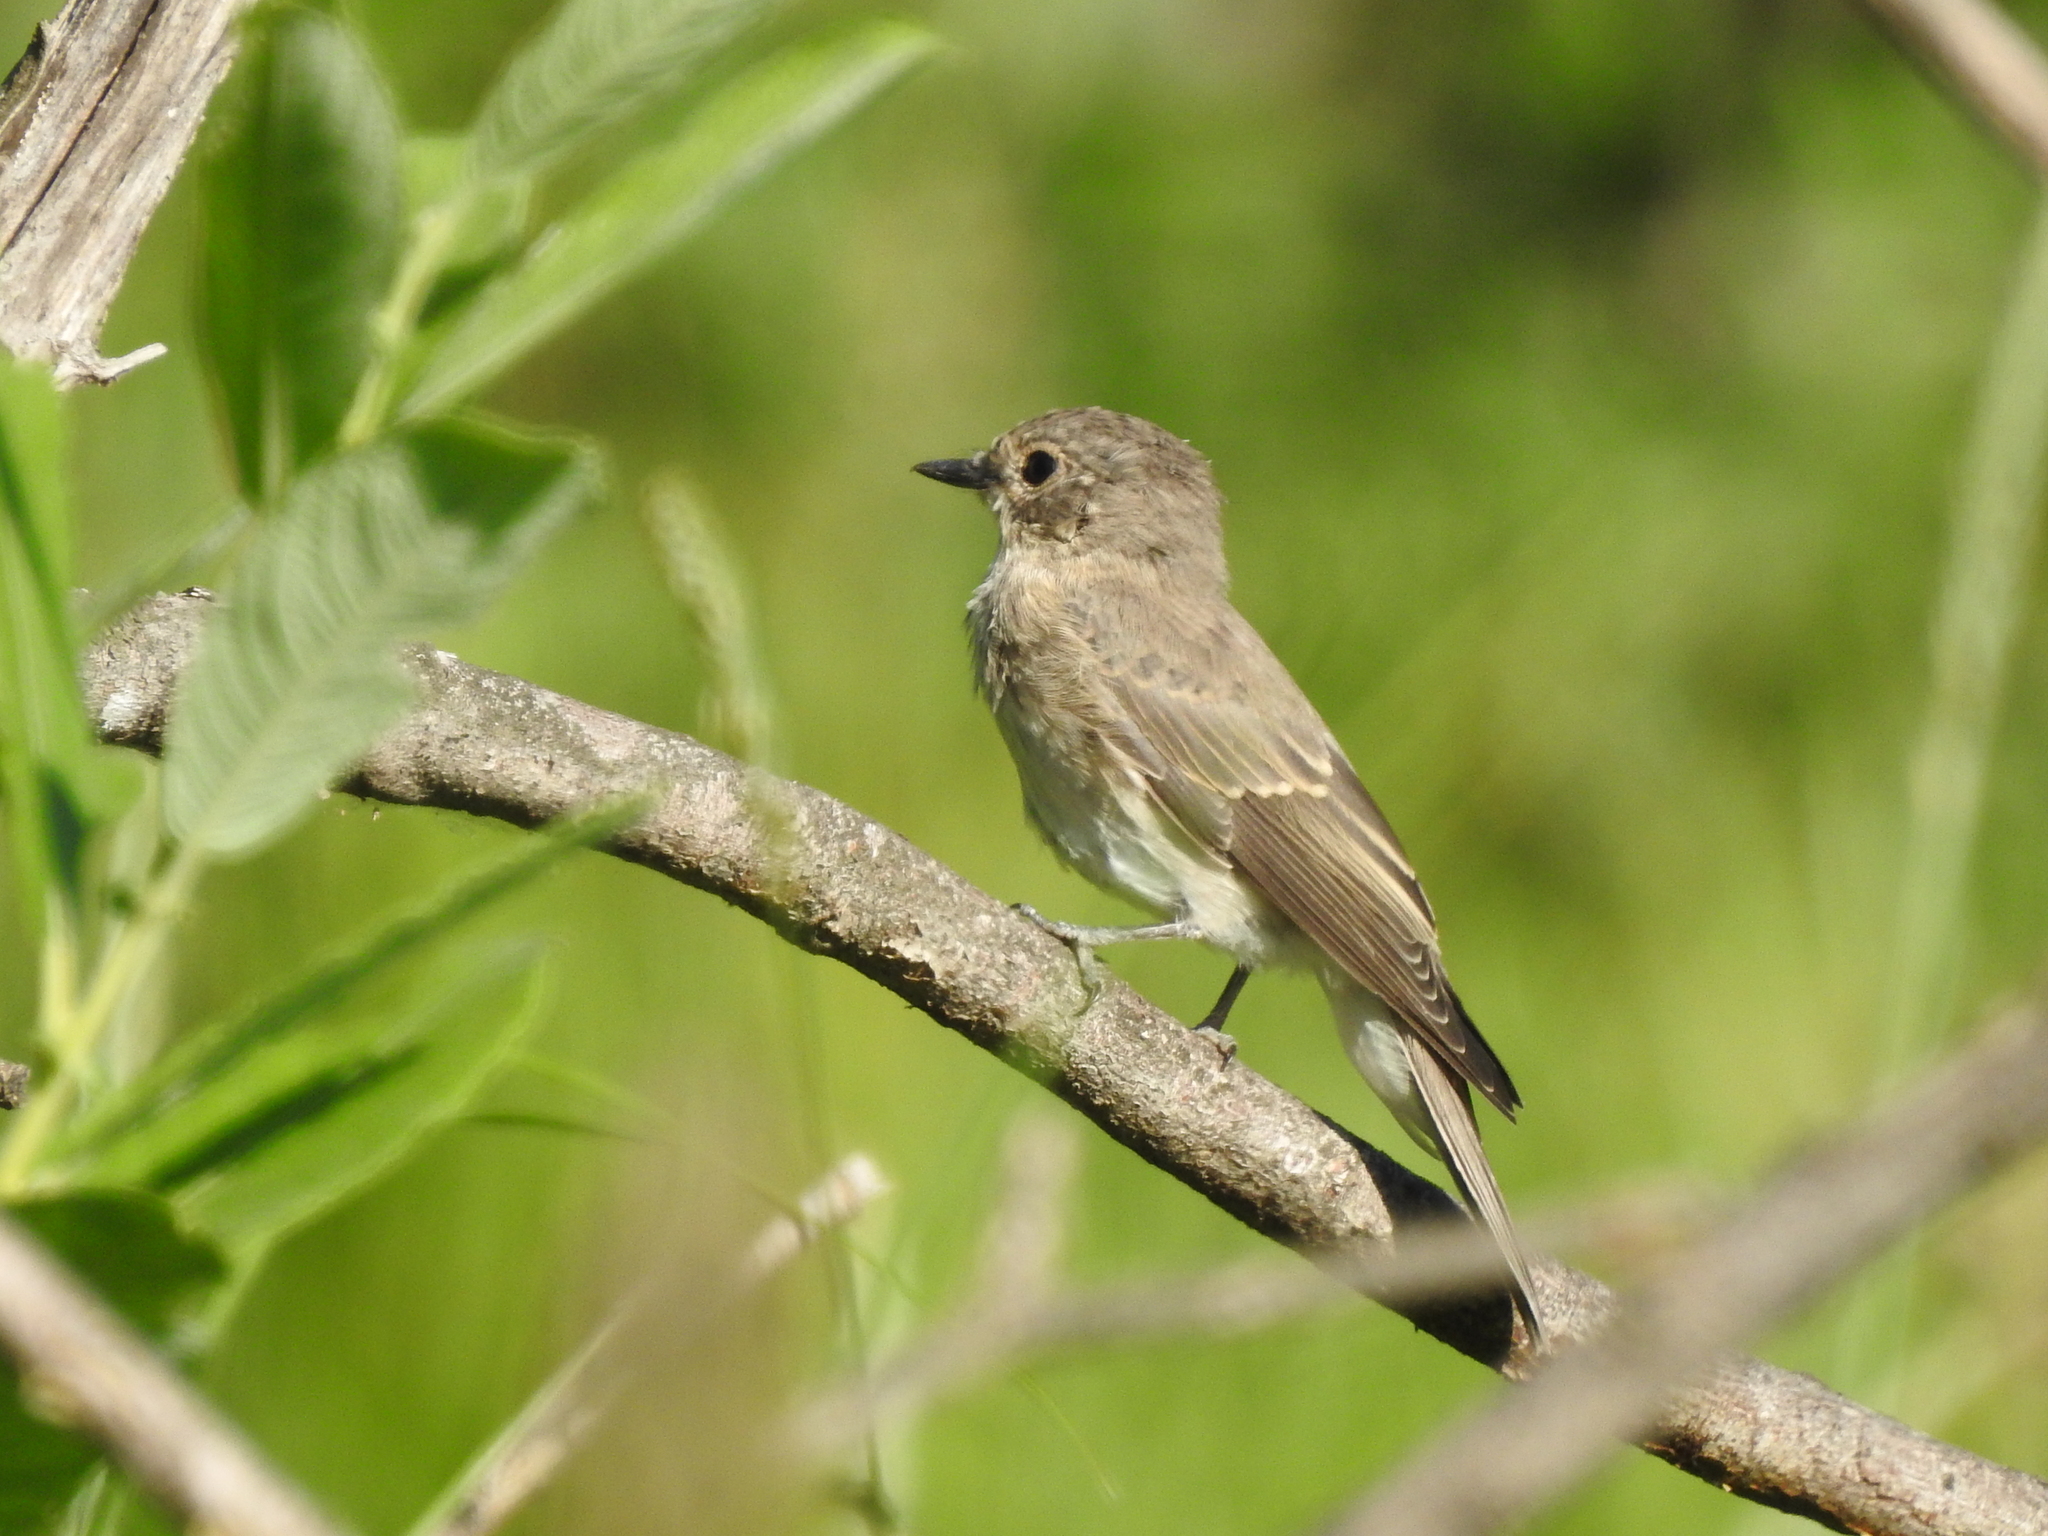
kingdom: Animalia
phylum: Chordata
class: Aves
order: Passeriformes
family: Muscicapidae
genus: Muscicapa
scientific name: Muscicapa striata
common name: Spotted flycatcher
